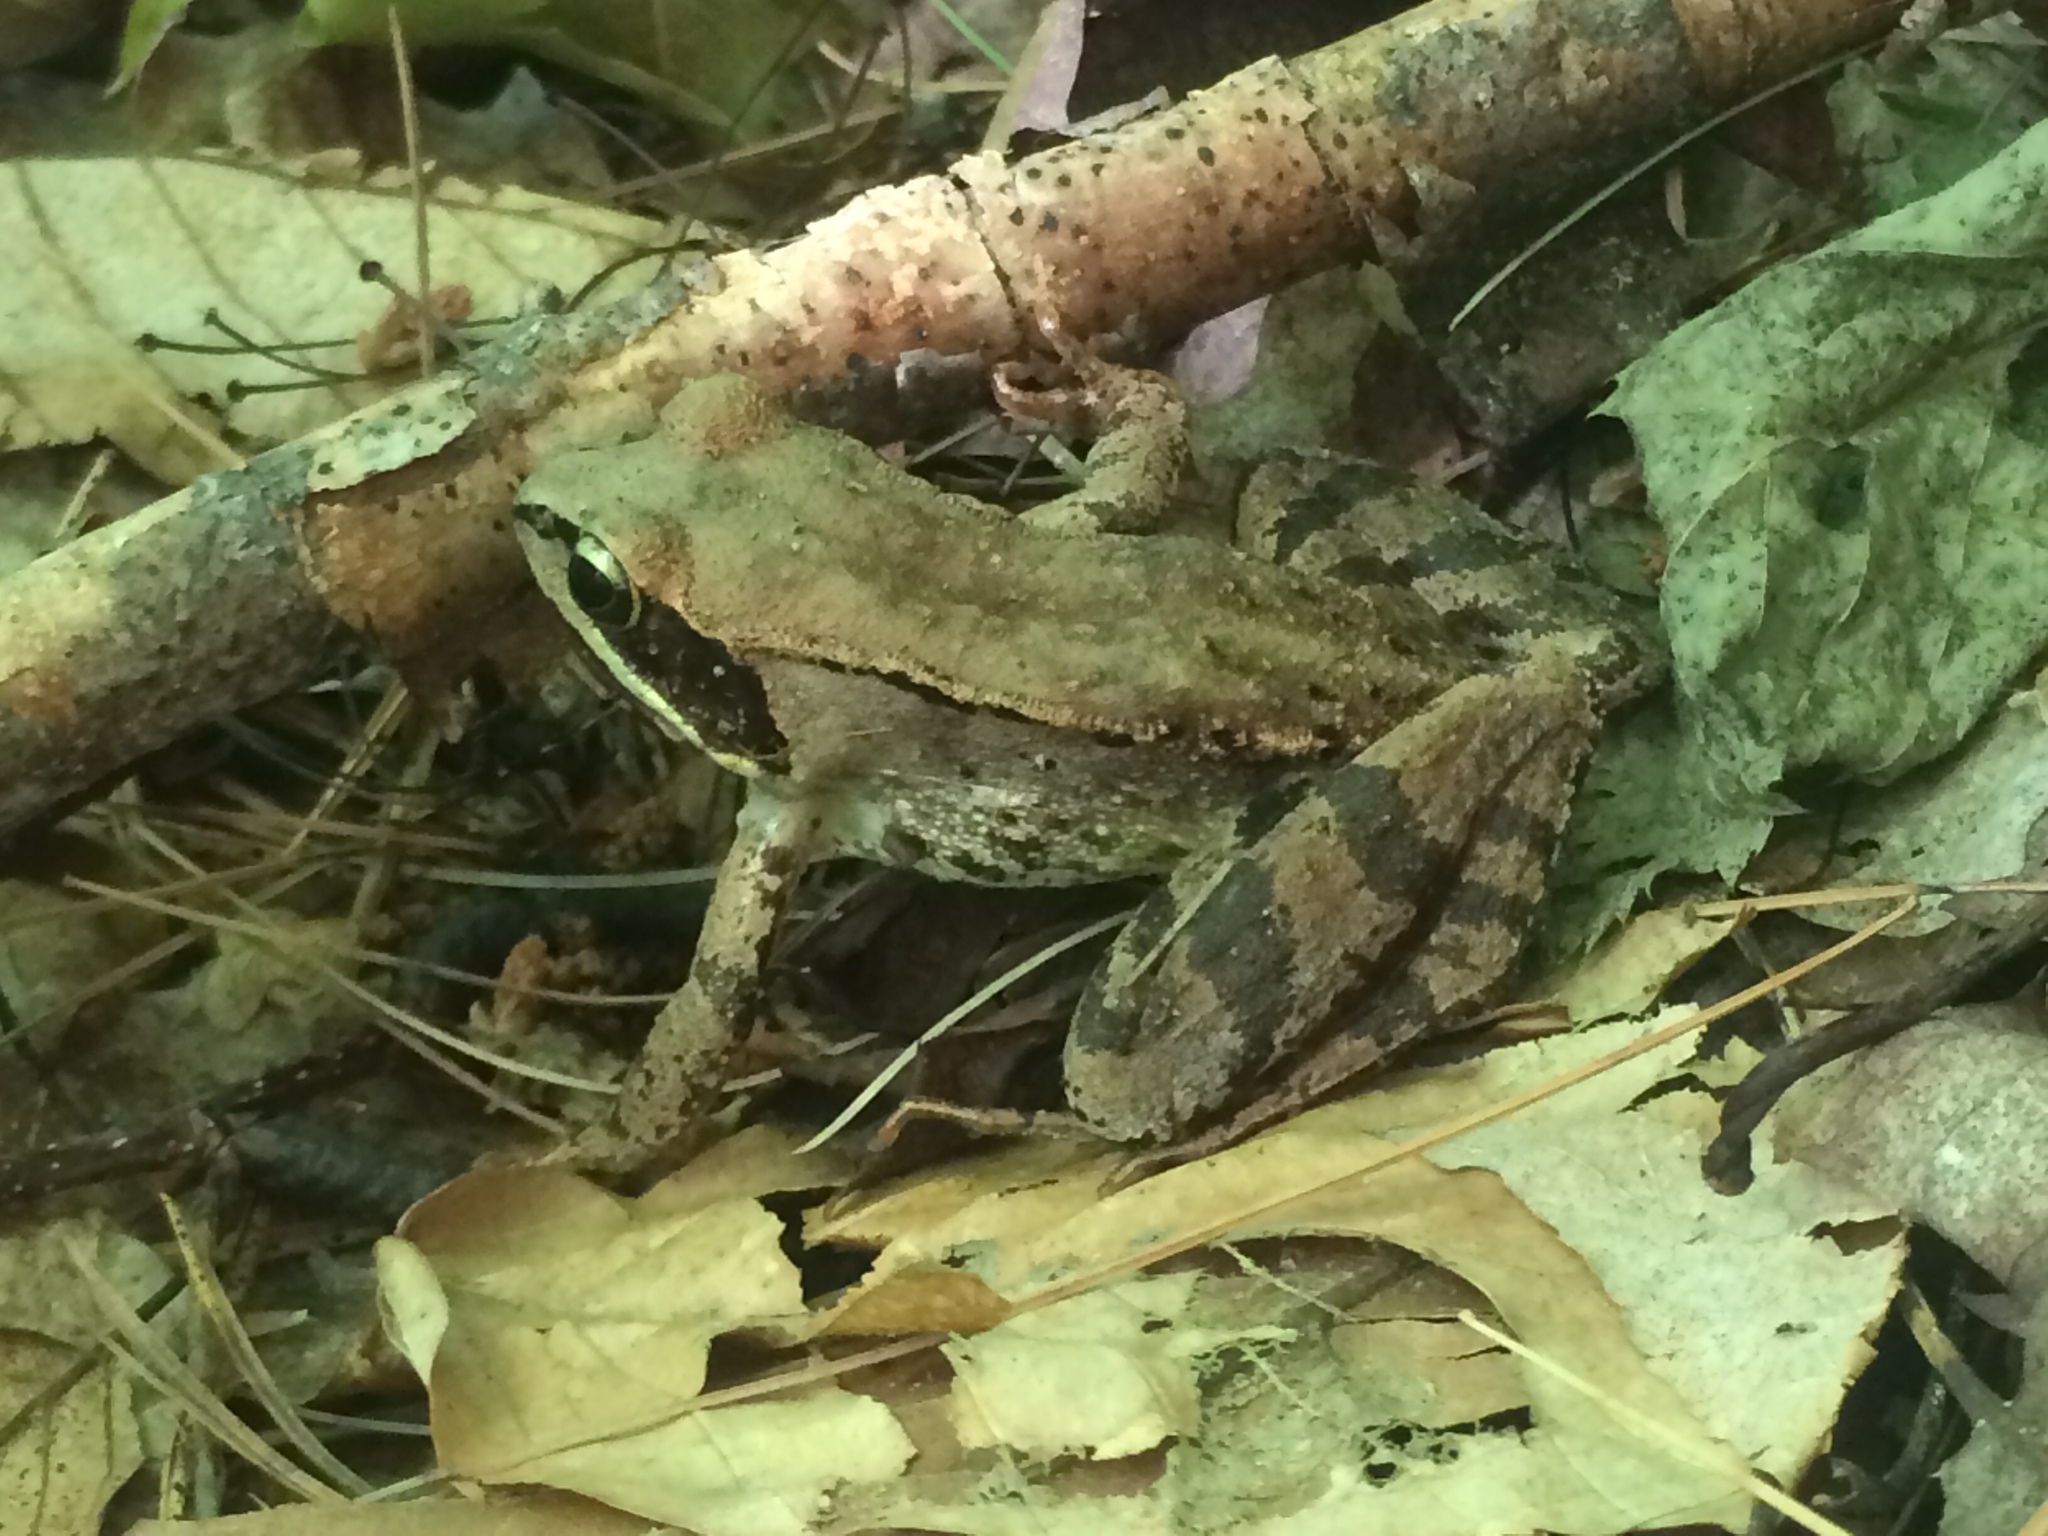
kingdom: Animalia
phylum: Chordata
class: Amphibia
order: Anura
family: Ranidae
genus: Lithobates
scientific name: Lithobates sylvaticus
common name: Wood frog
